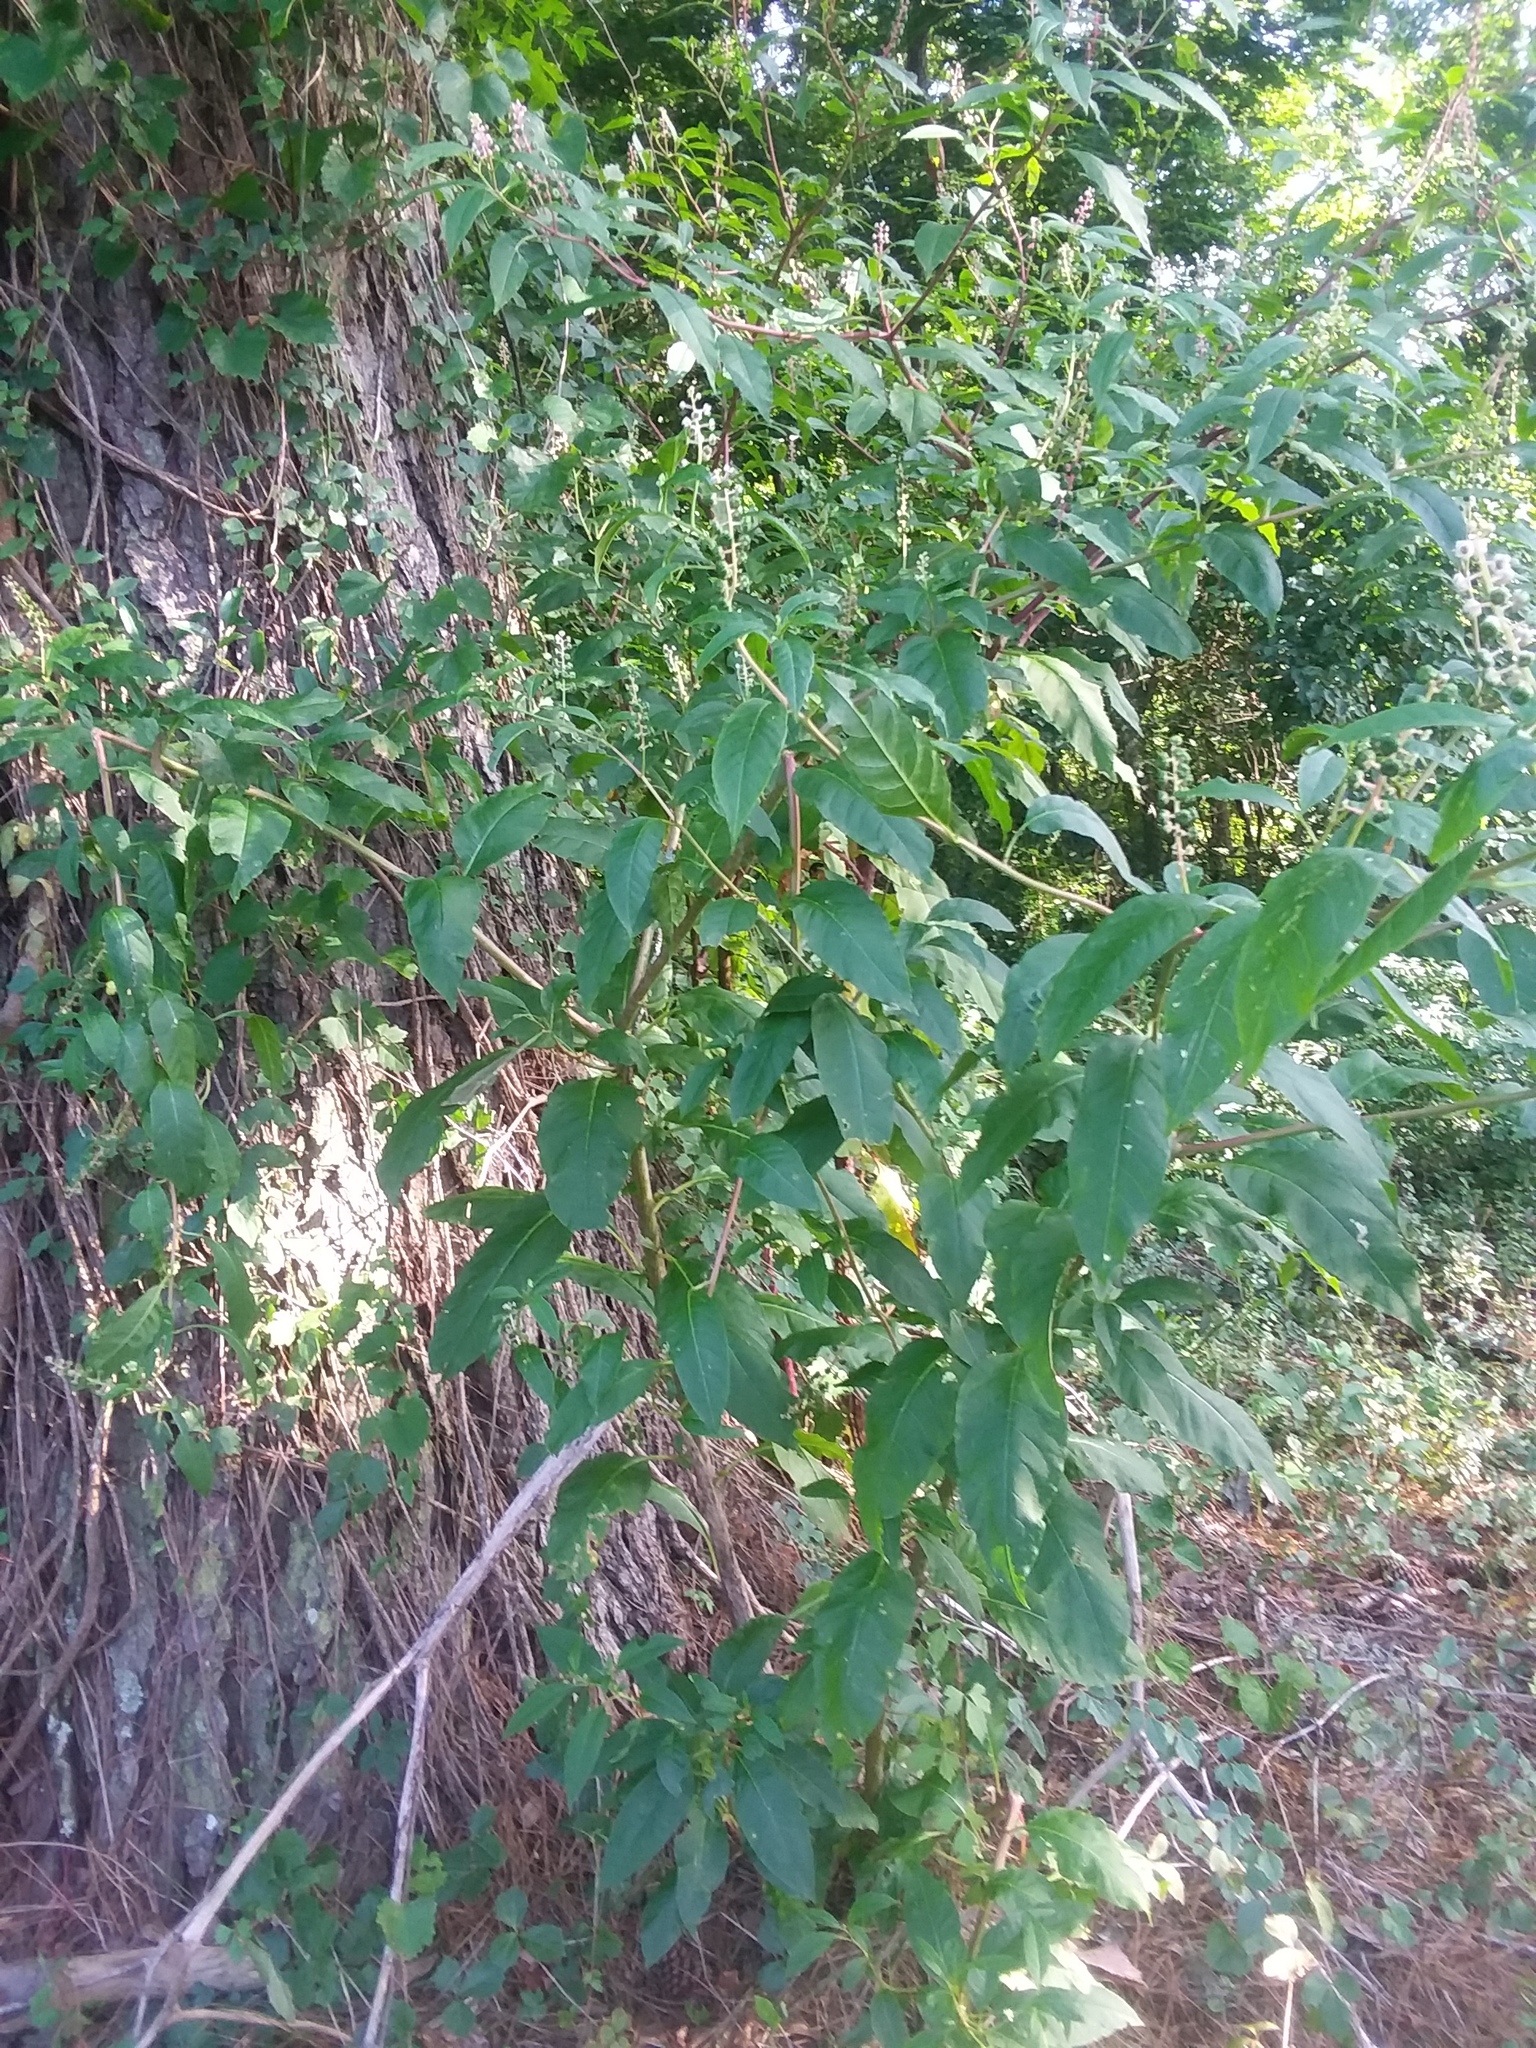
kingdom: Plantae
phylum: Tracheophyta
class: Magnoliopsida
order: Caryophyllales
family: Phytolaccaceae
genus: Phytolacca
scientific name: Phytolacca americana
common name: American pokeweed
